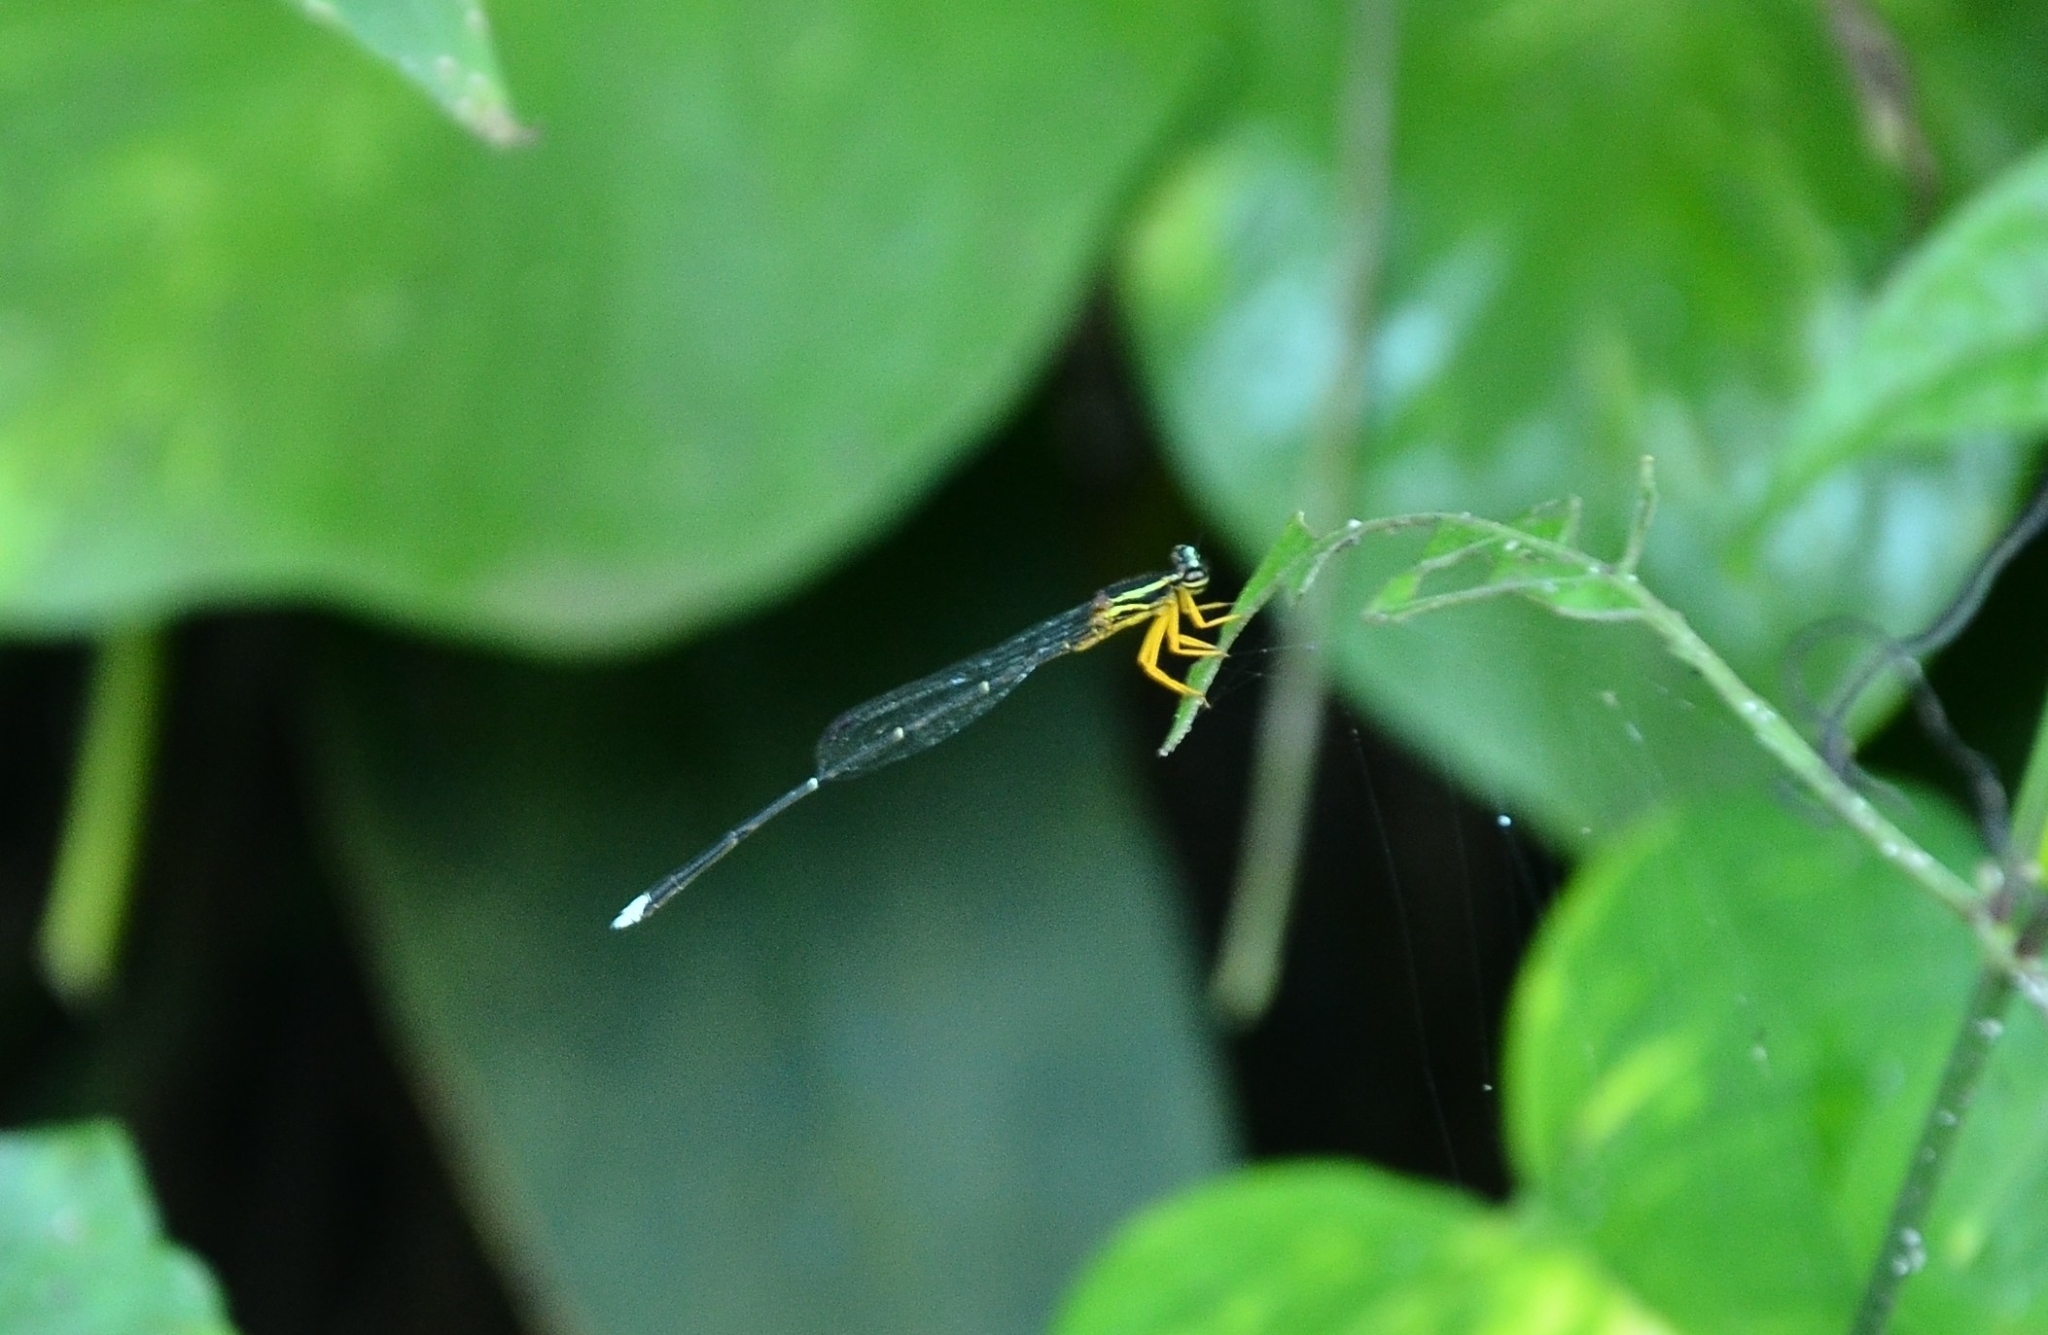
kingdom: Animalia
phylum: Arthropoda
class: Insecta
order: Odonata
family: Platycnemididae
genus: Copera
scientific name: Copera marginipes
